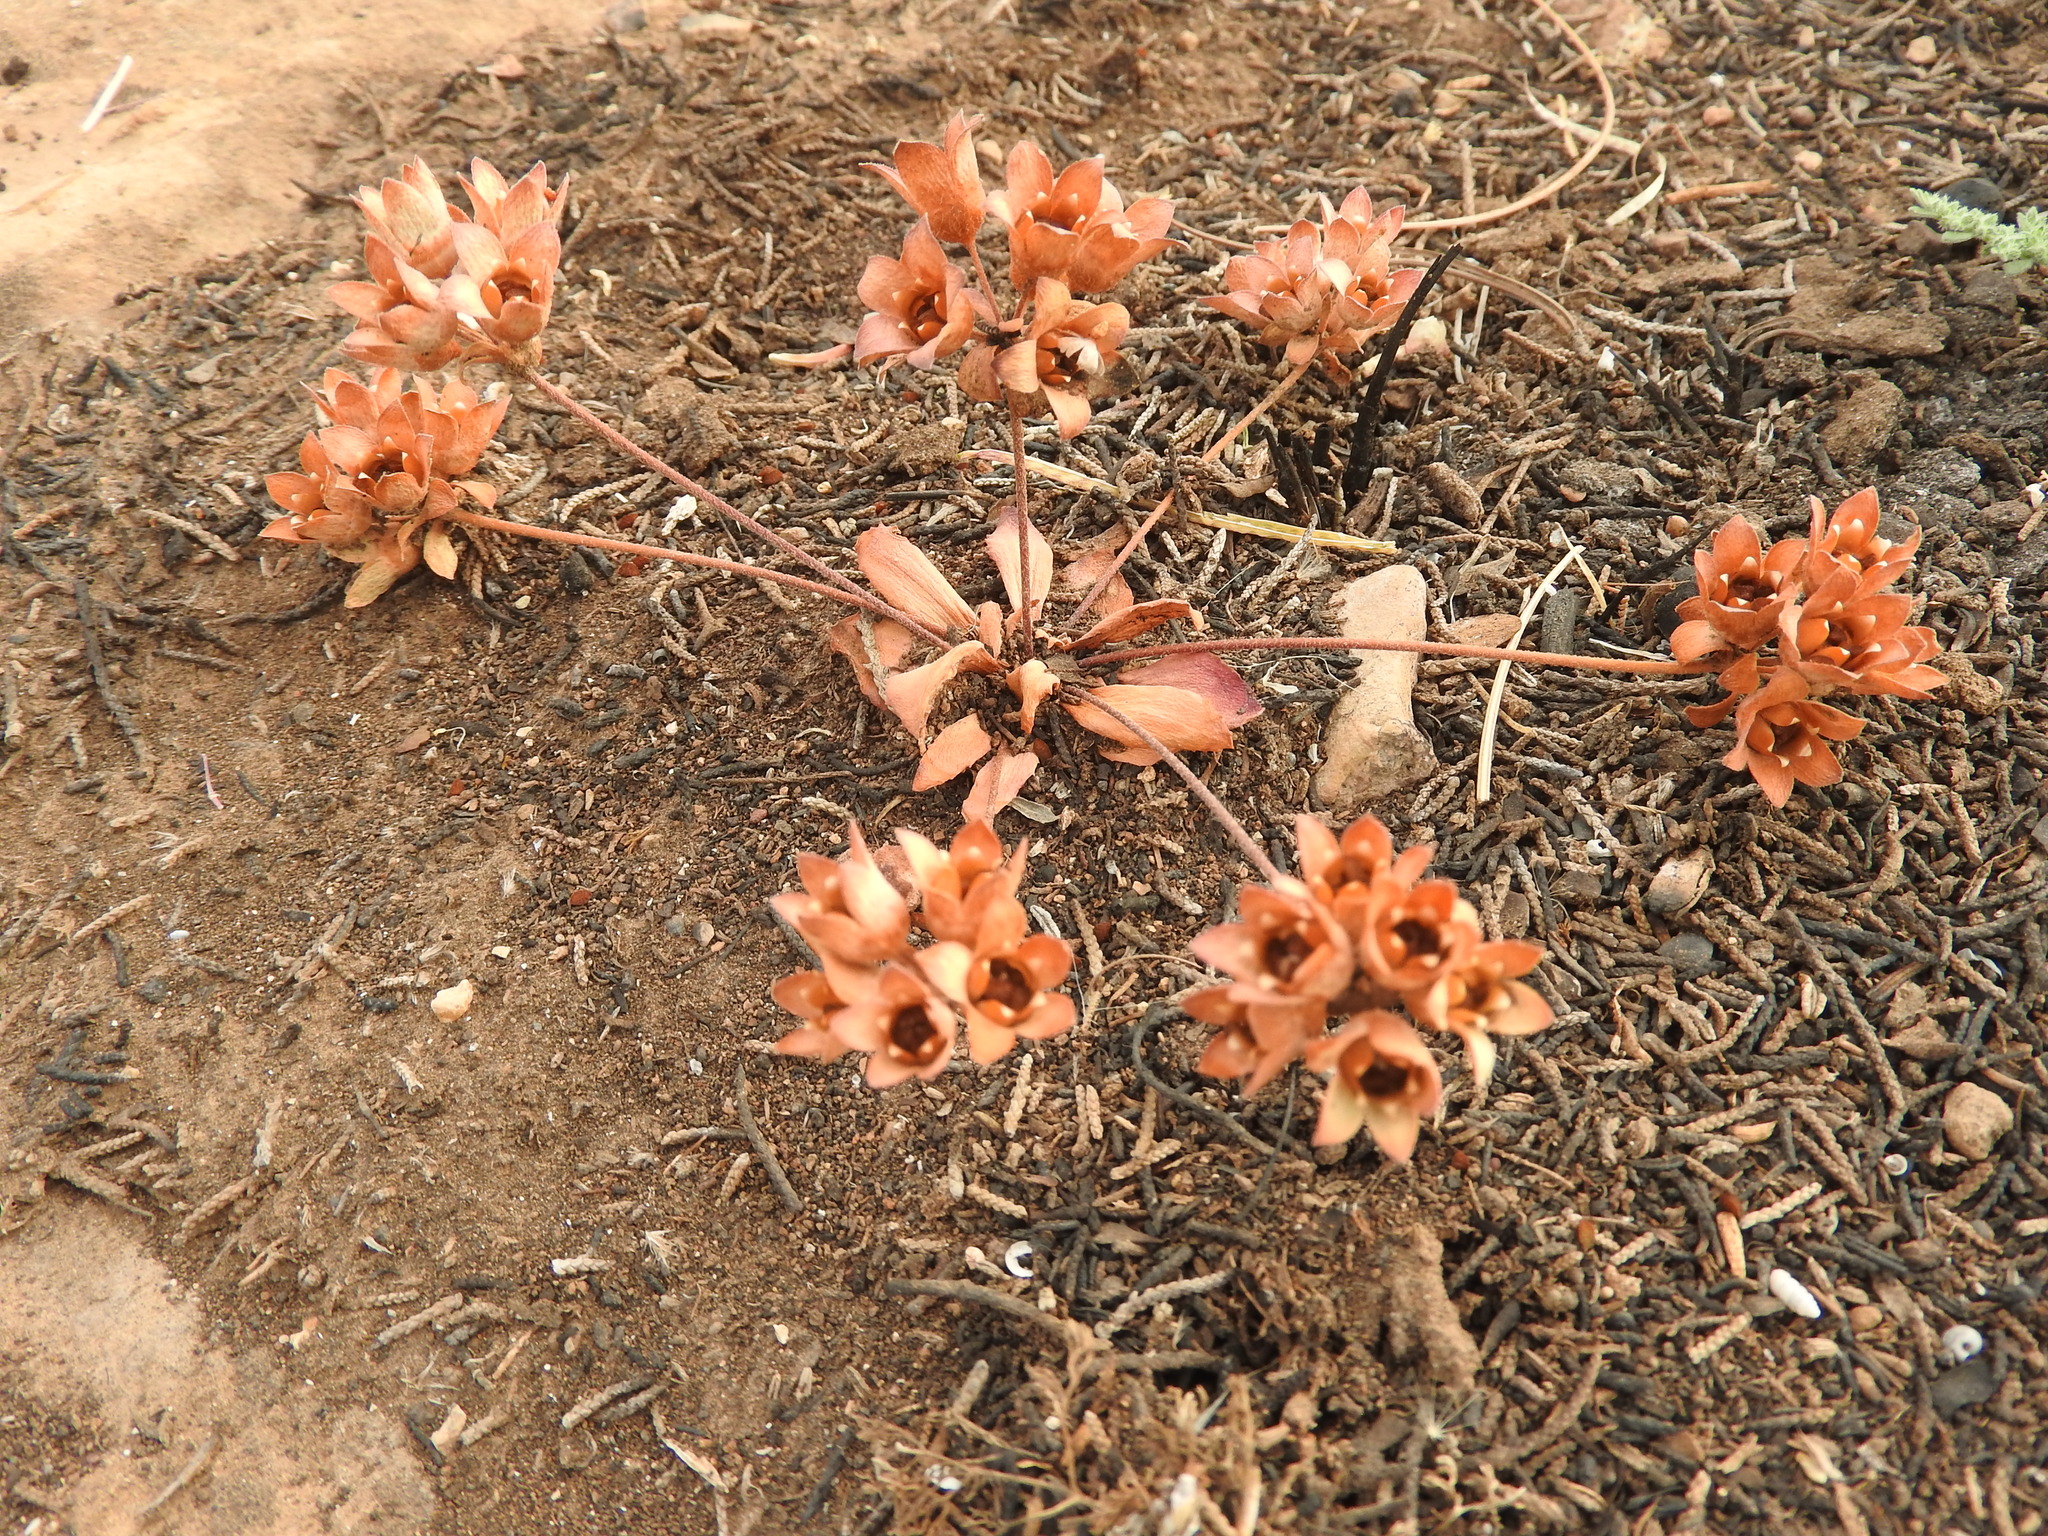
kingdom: Plantae
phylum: Tracheophyta
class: Magnoliopsida
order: Ericales
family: Primulaceae
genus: Androsace
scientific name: Androsace maxima
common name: Annual androsace
